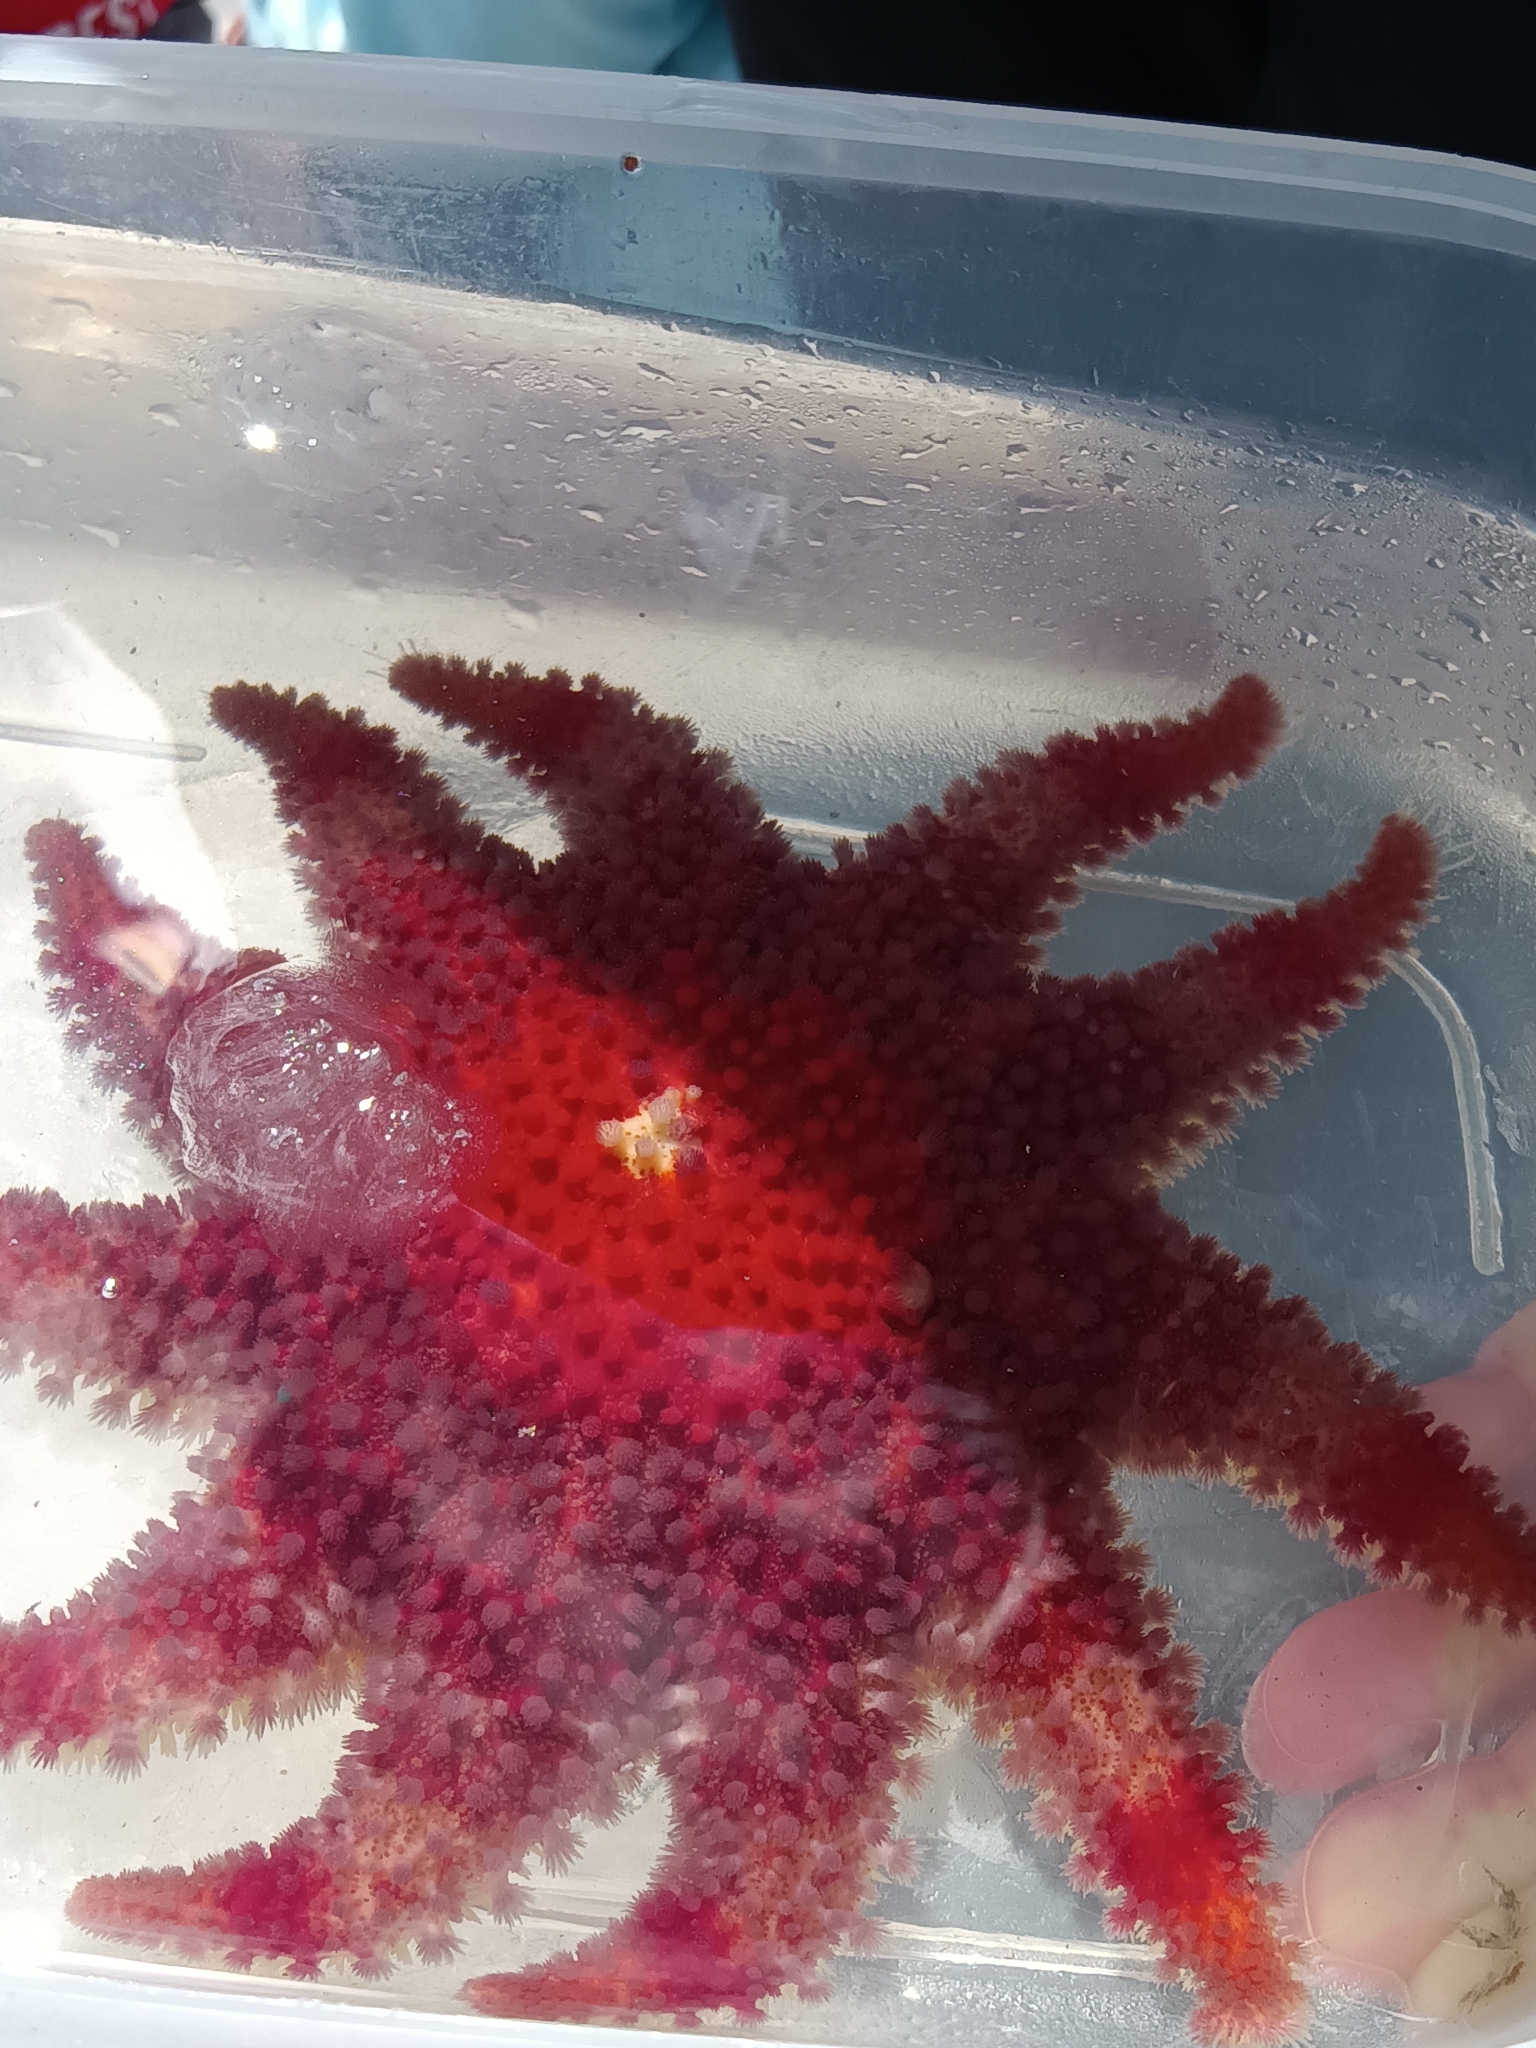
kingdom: Animalia
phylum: Echinodermata
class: Asteroidea
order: Valvatida
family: Solasteridae
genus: Crossaster
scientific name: Crossaster papposus
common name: Common sun star
